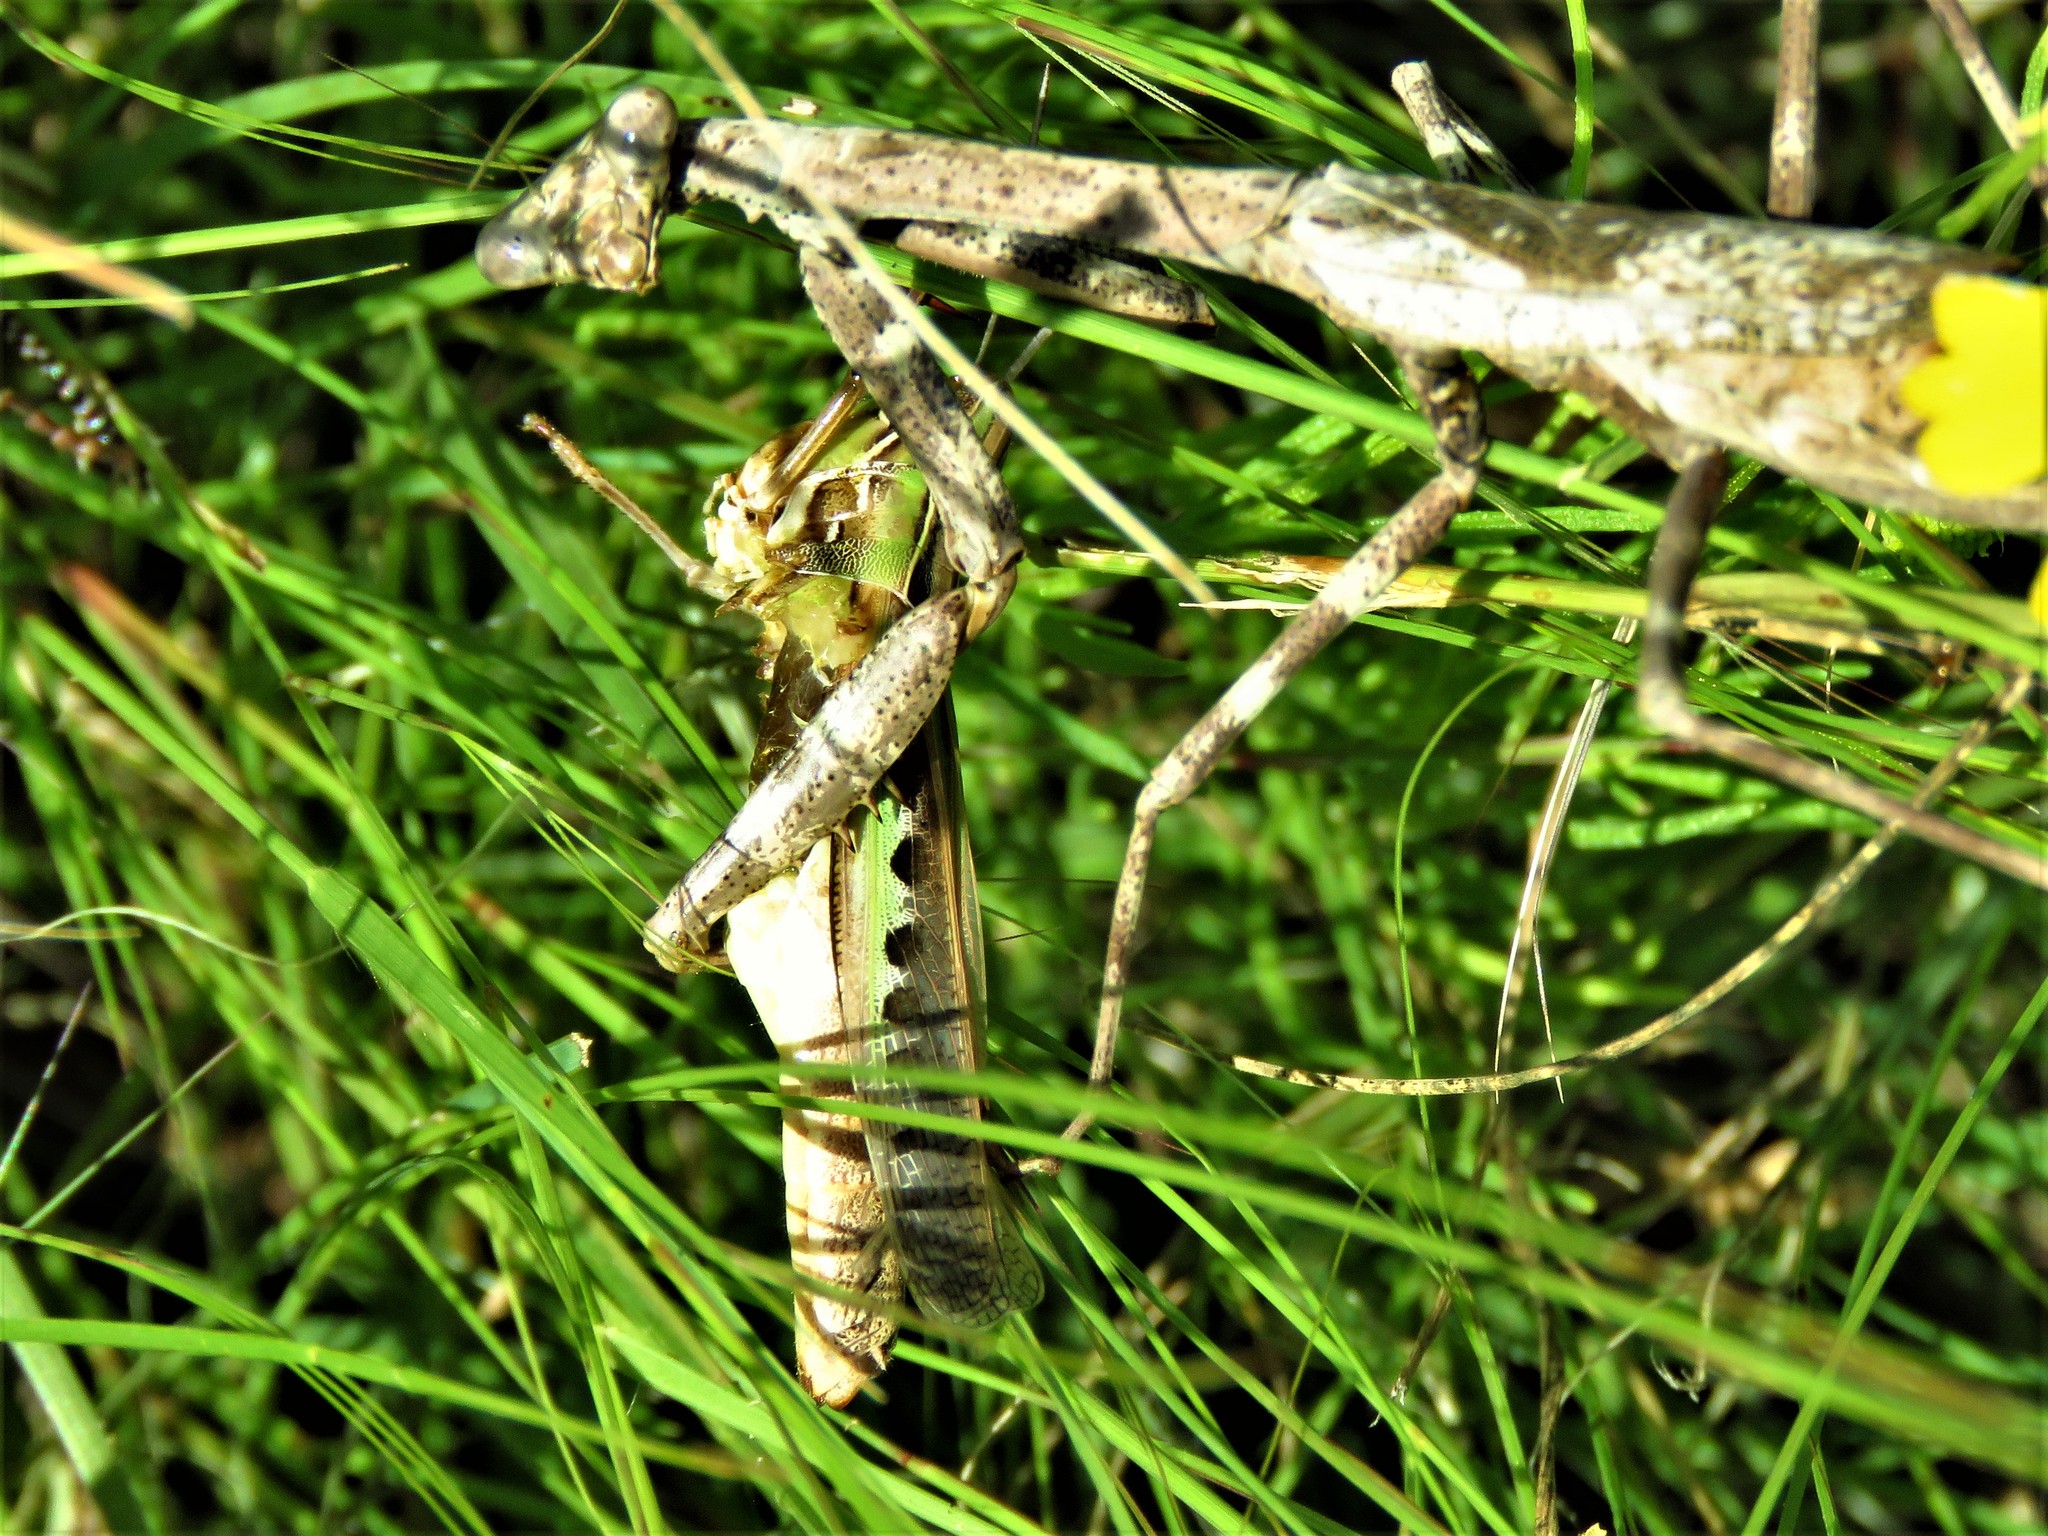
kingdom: Animalia
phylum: Arthropoda
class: Insecta
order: Orthoptera
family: Acrididae
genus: Syrbula
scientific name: Syrbula admirabilis
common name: Handsome grasshopper
